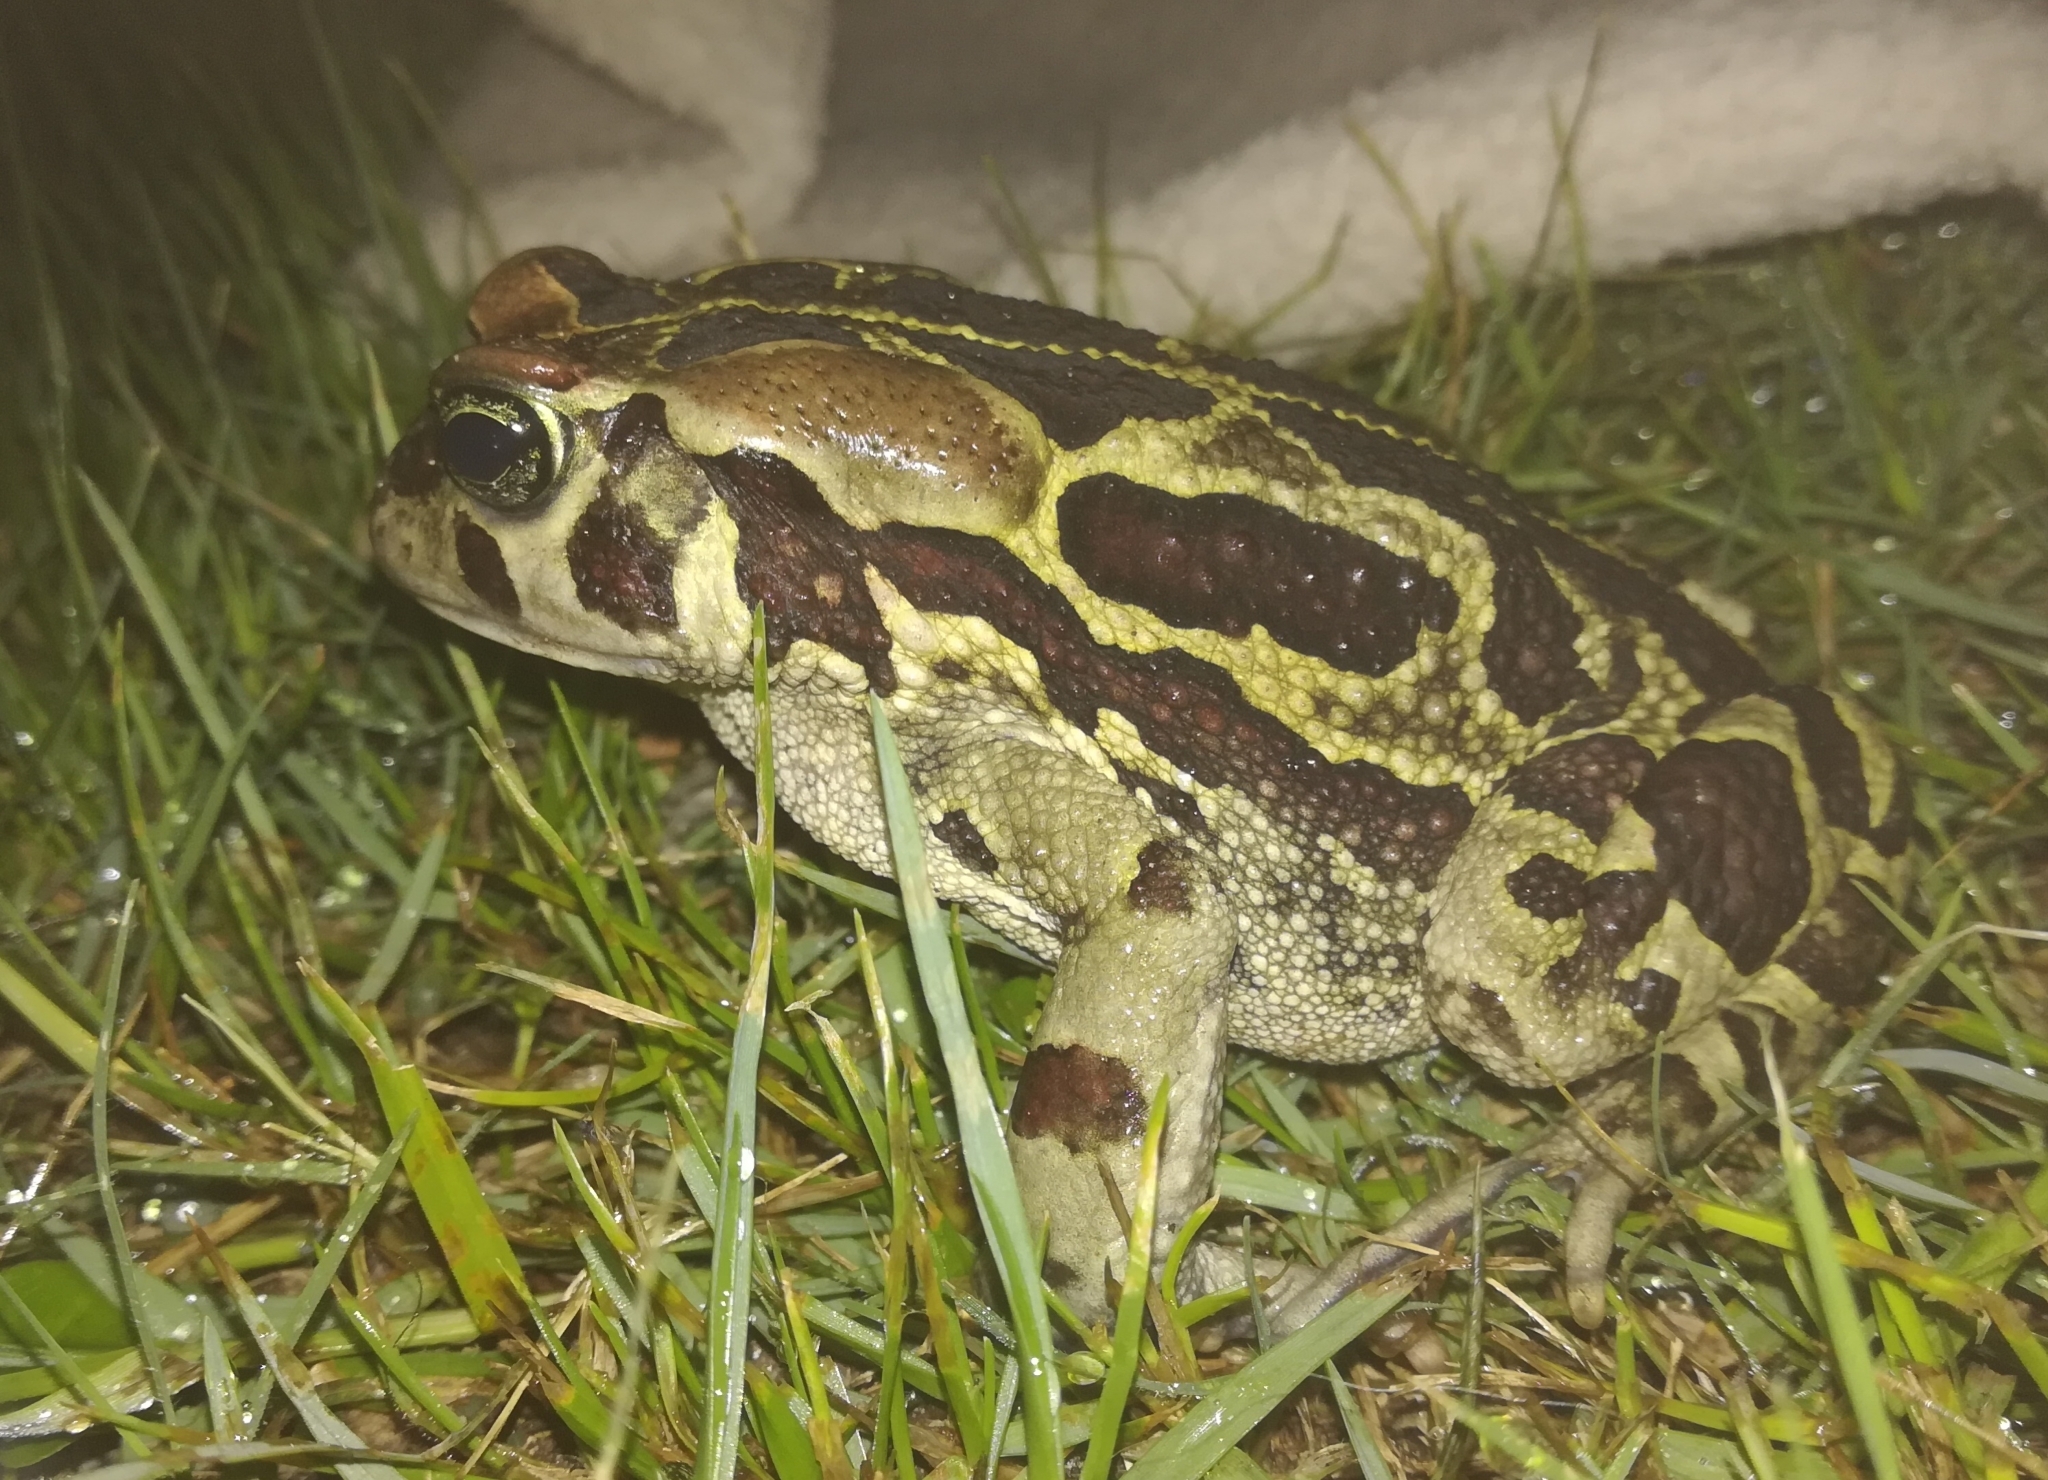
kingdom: Animalia
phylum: Chordata
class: Amphibia
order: Anura
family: Bufonidae
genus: Sclerophrys
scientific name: Sclerophrys pantherina
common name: Panther toad
